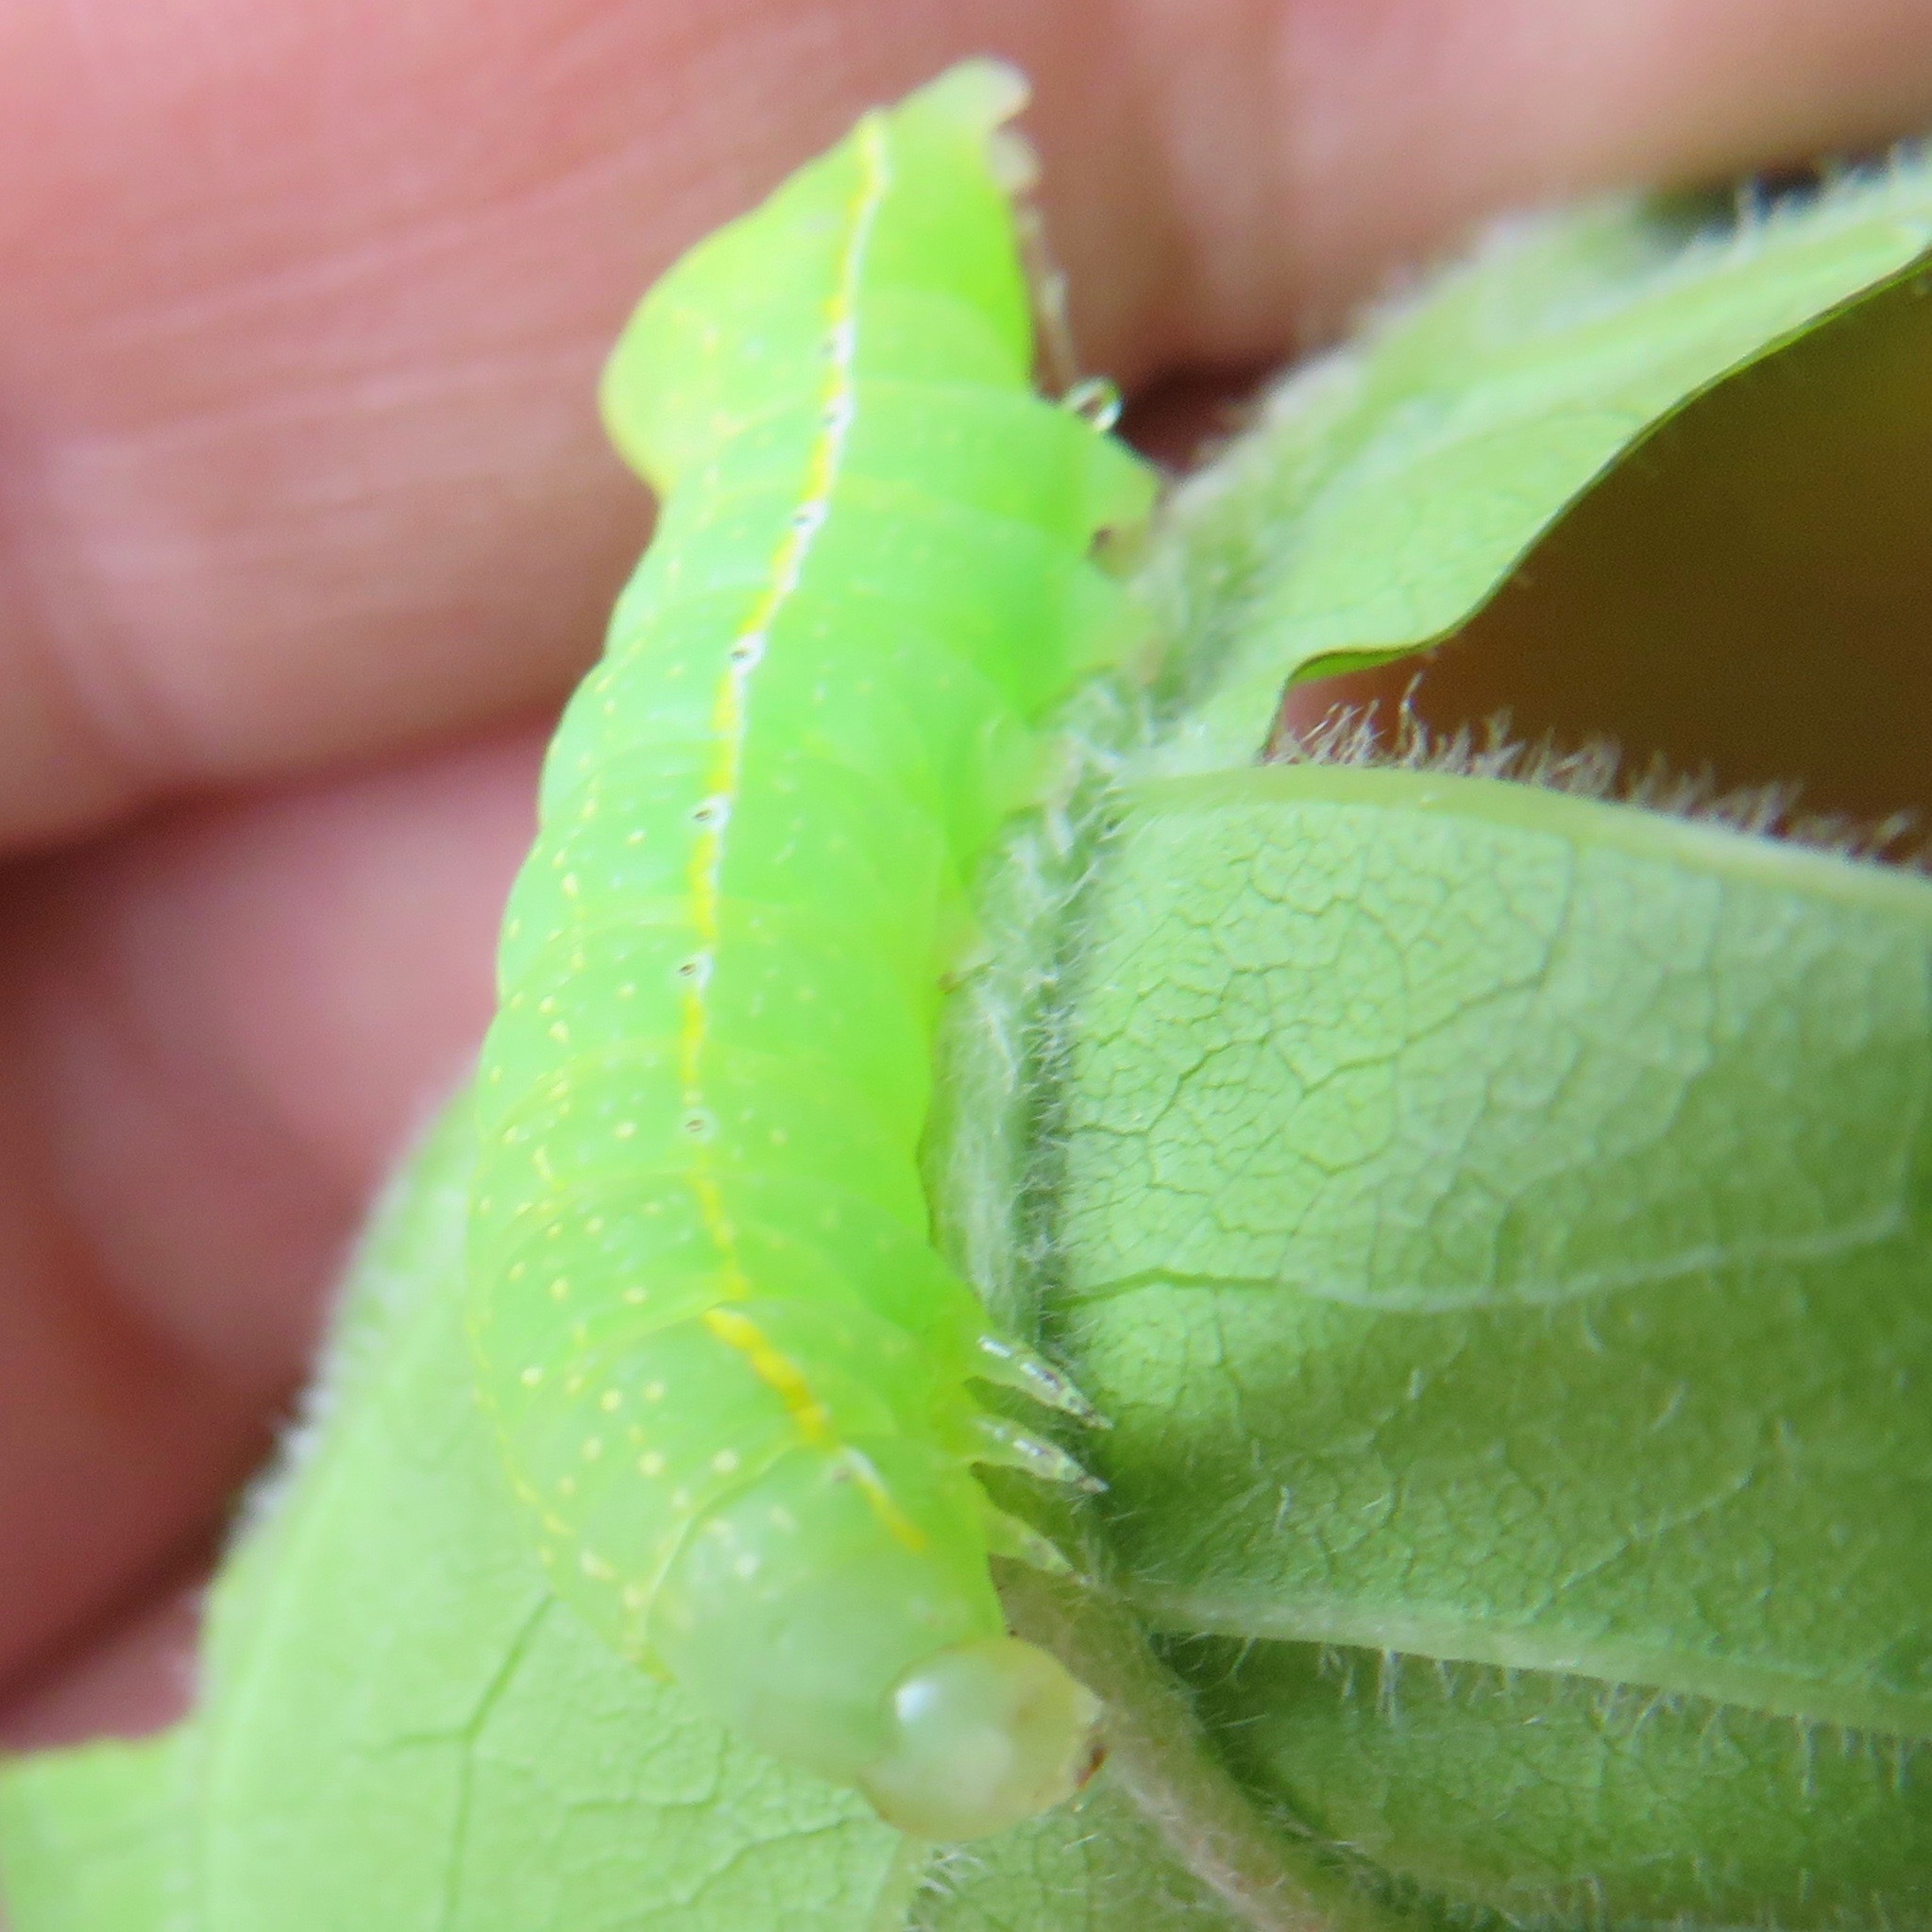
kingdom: Animalia
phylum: Arthropoda
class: Insecta
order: Lepidoptera
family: Noctuidae
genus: Amphipyra
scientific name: Amphipyra pyramidoides
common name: American copper underwing
